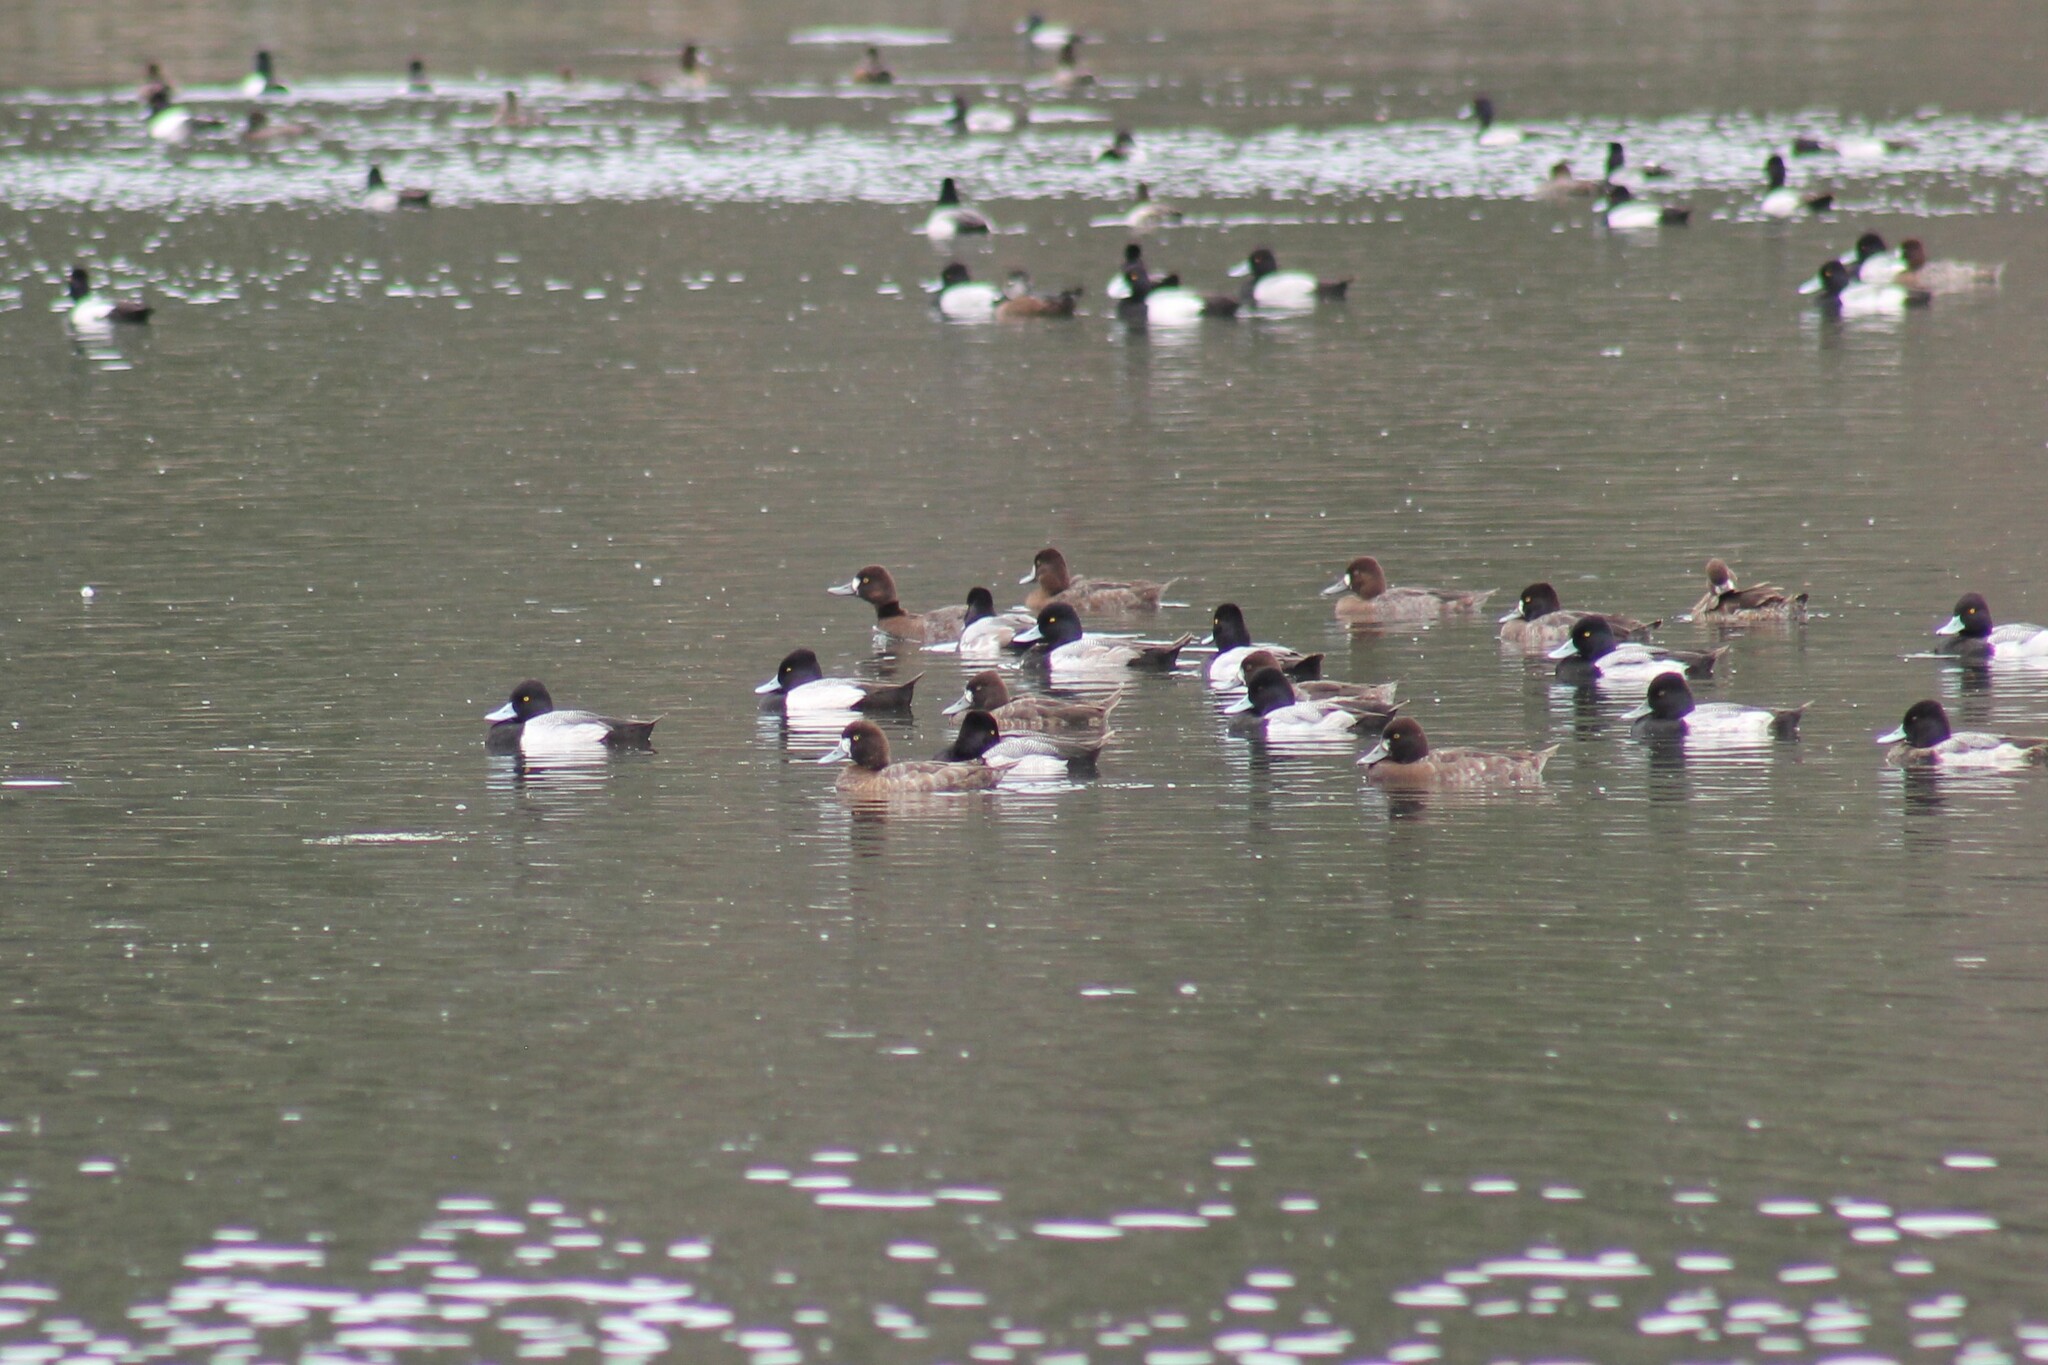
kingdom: Animalia
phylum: Chordata
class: Aves
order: Anseriformes
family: Anatidae
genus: Aythya
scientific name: Aythya affinis
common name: Lesser scaup
